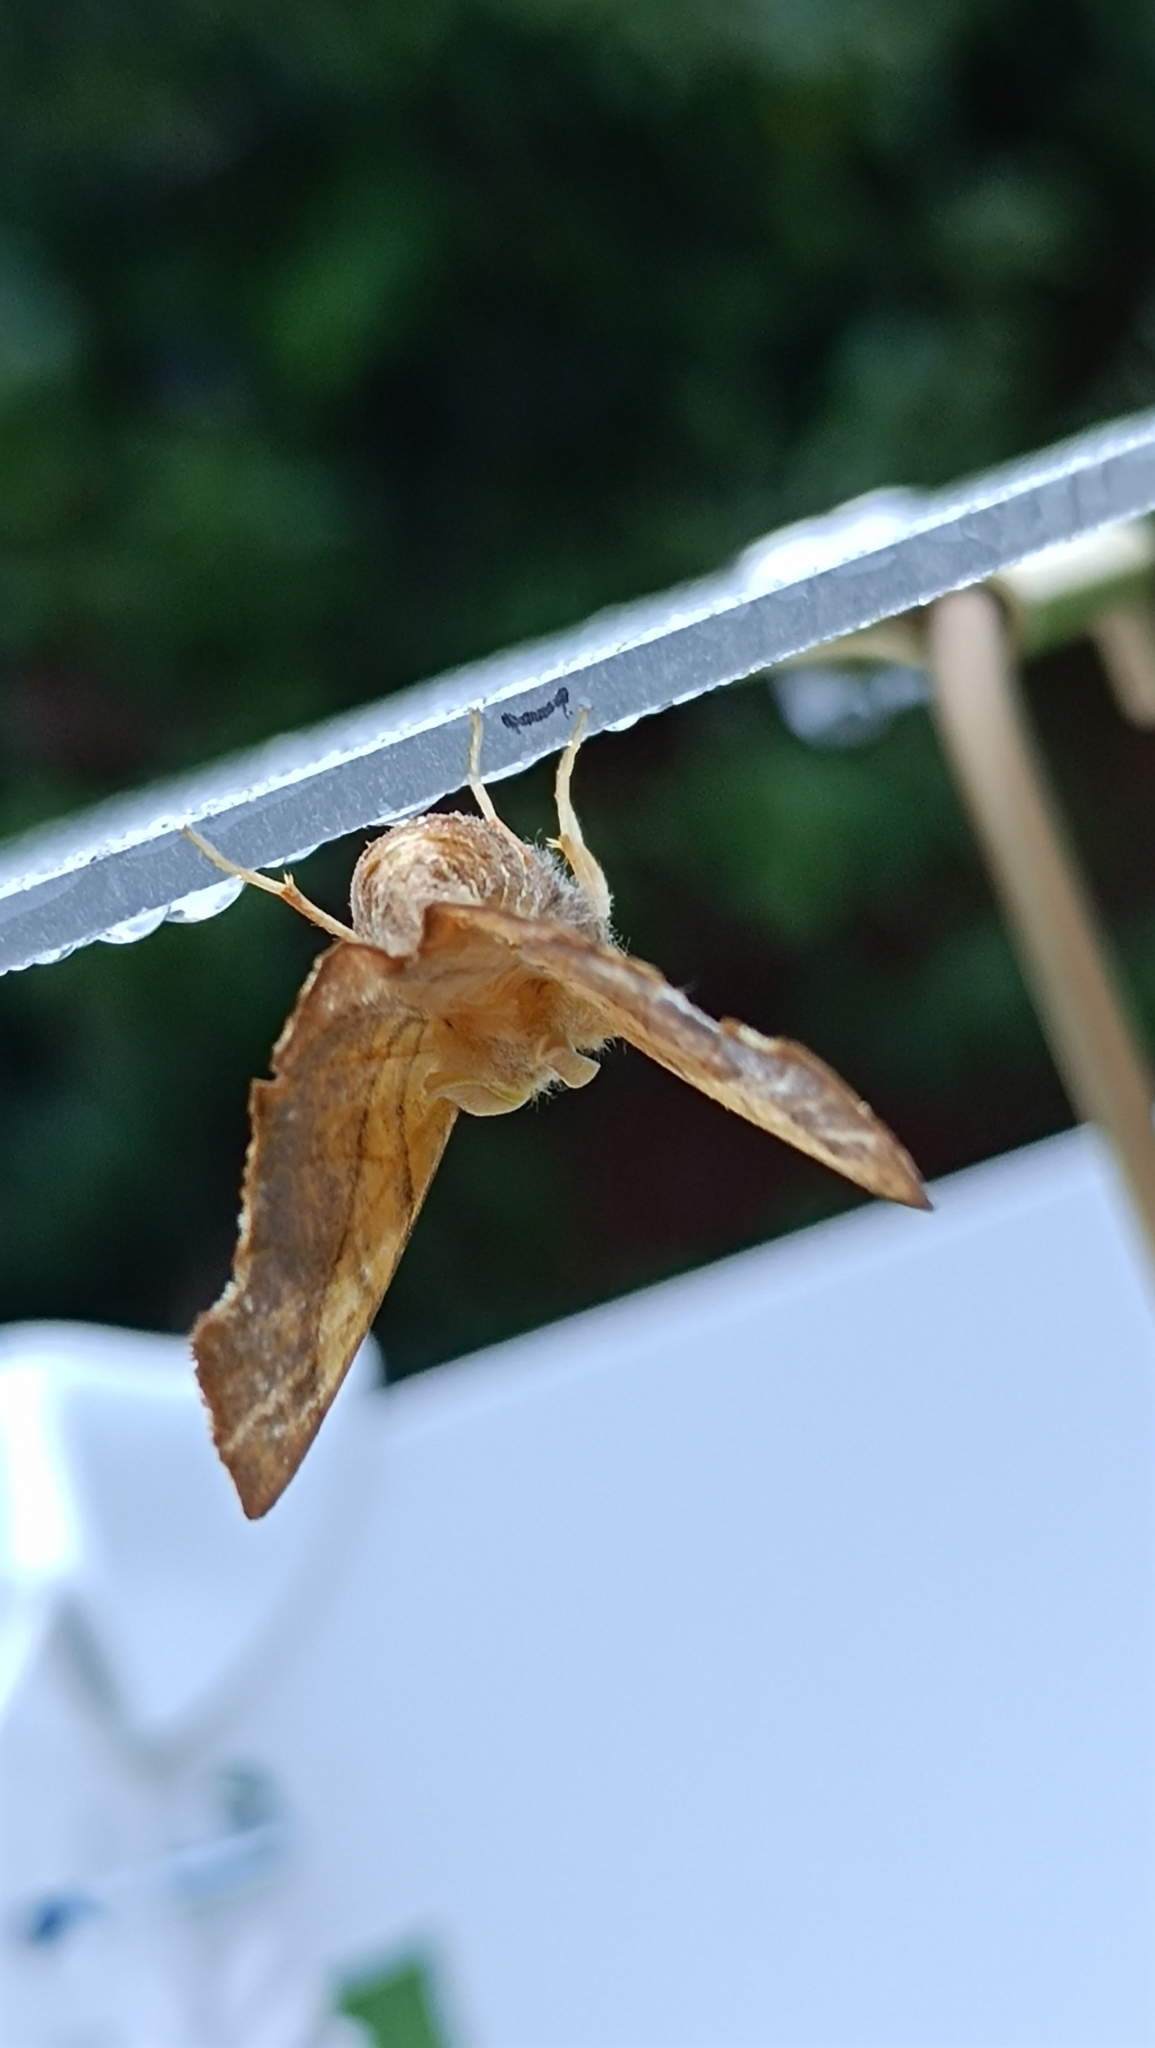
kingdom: Animalia
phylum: Arthropoda
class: Insecta
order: Lepidoptera
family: Geometridae
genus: Ennomos
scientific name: Ennomos fuscantaria
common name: Dusky thorn
